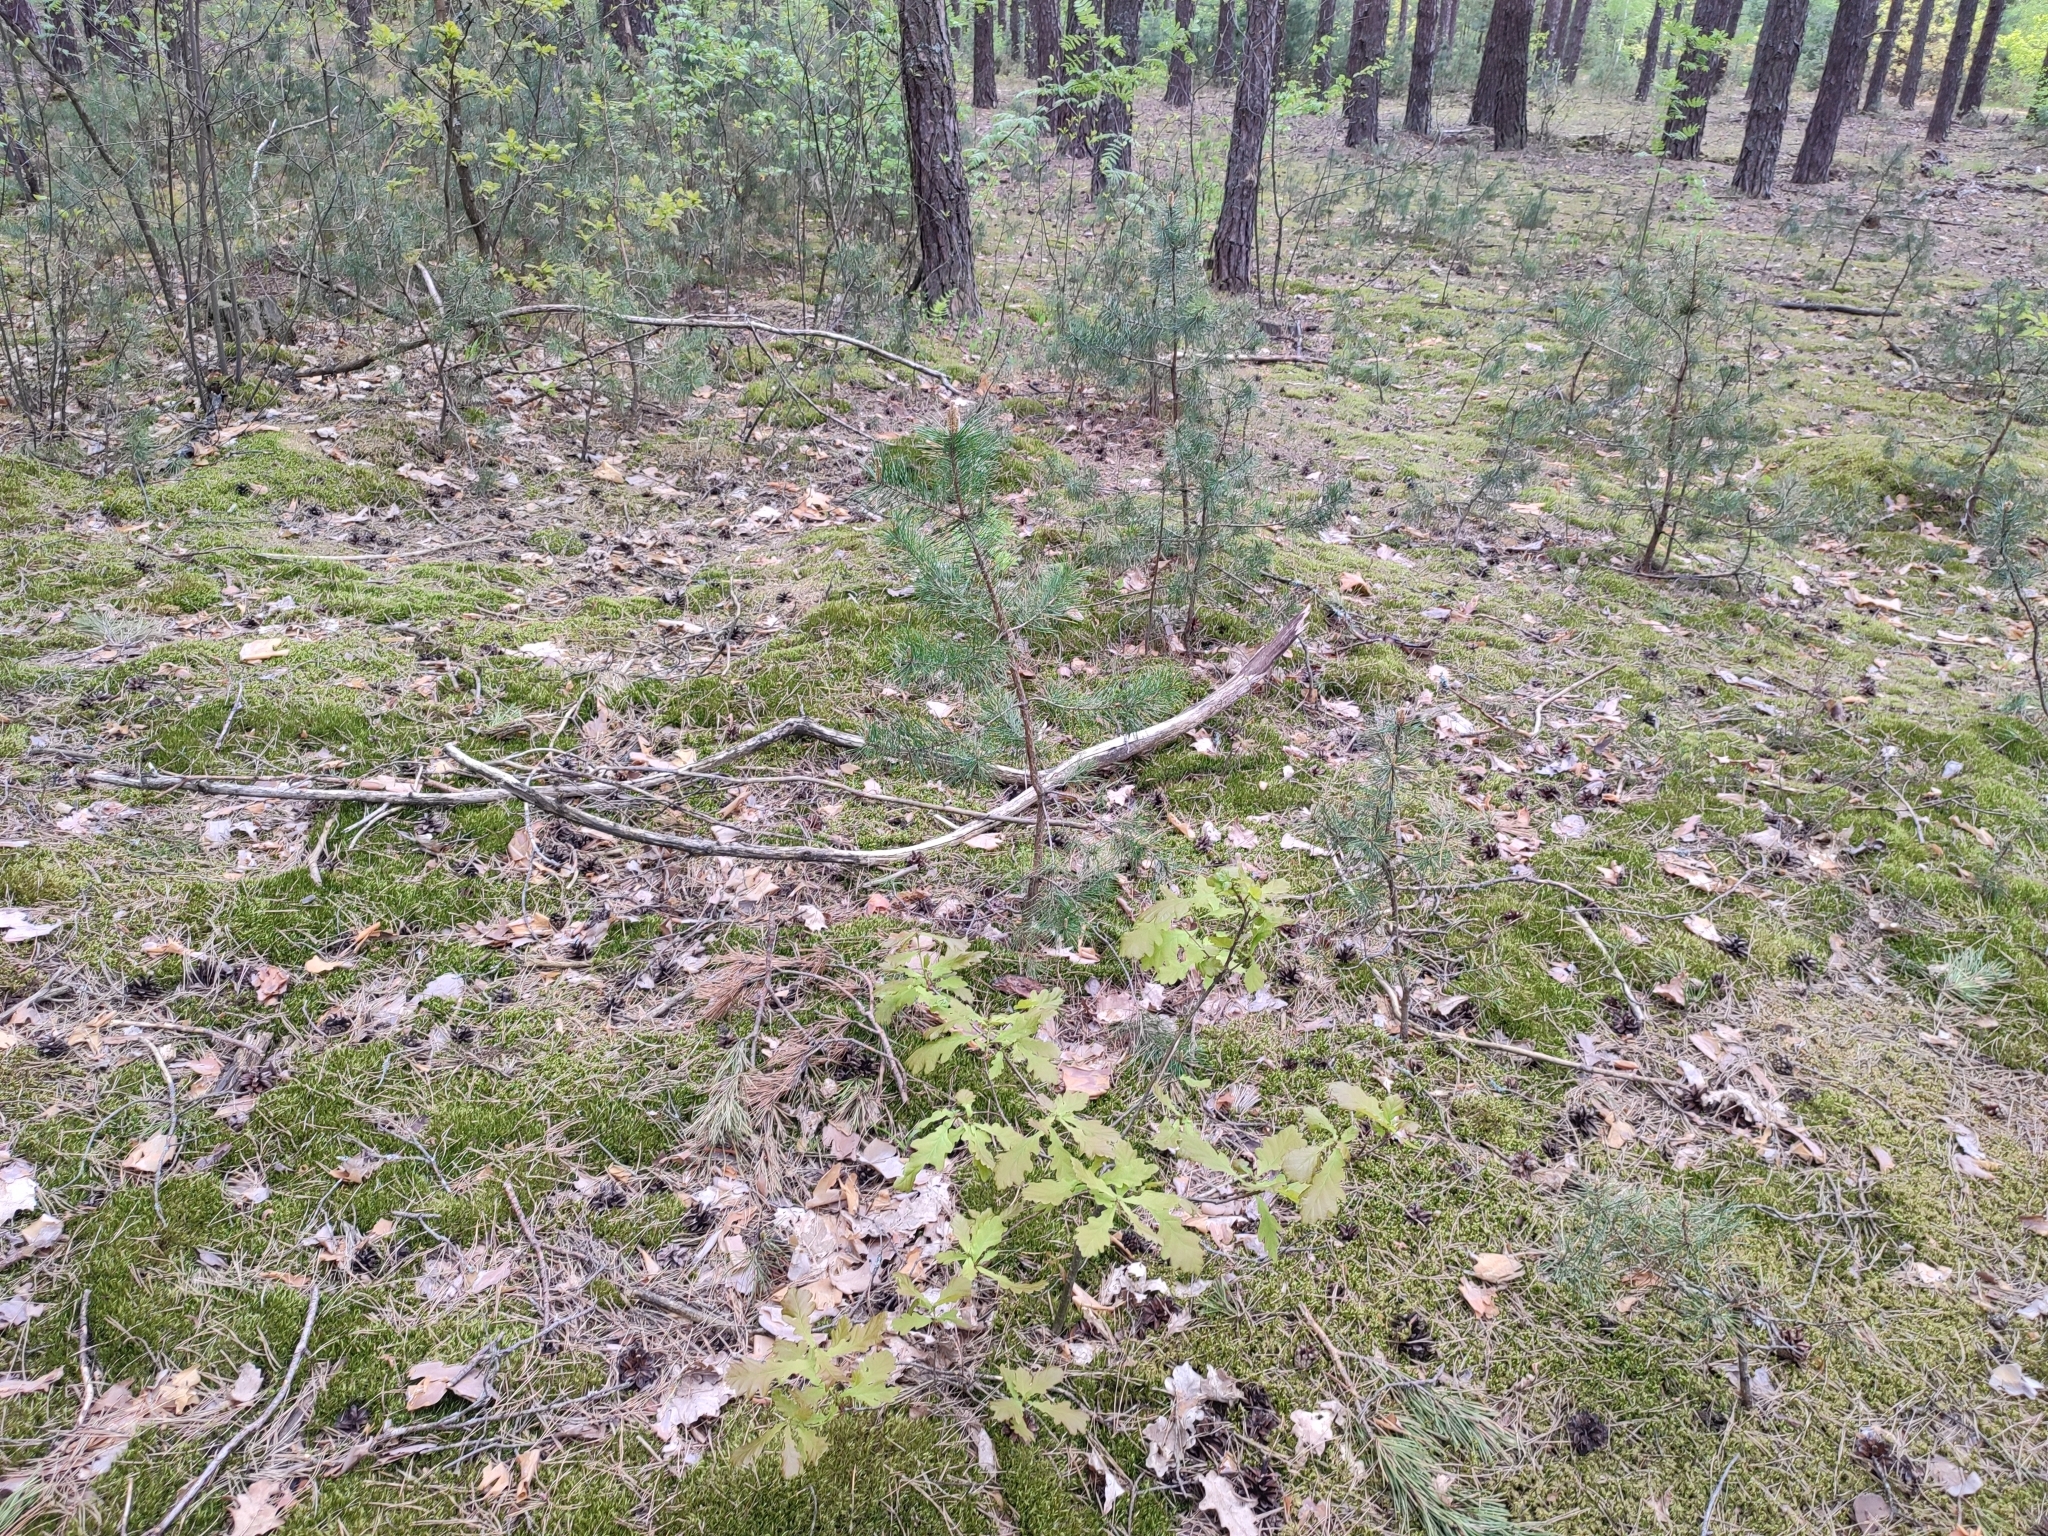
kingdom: Plantae
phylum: Tracheophyta
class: Magnoliopsida
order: Fagales
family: Fagaceae
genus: Quercus
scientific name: Quercus robur
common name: Pedunculate oak
